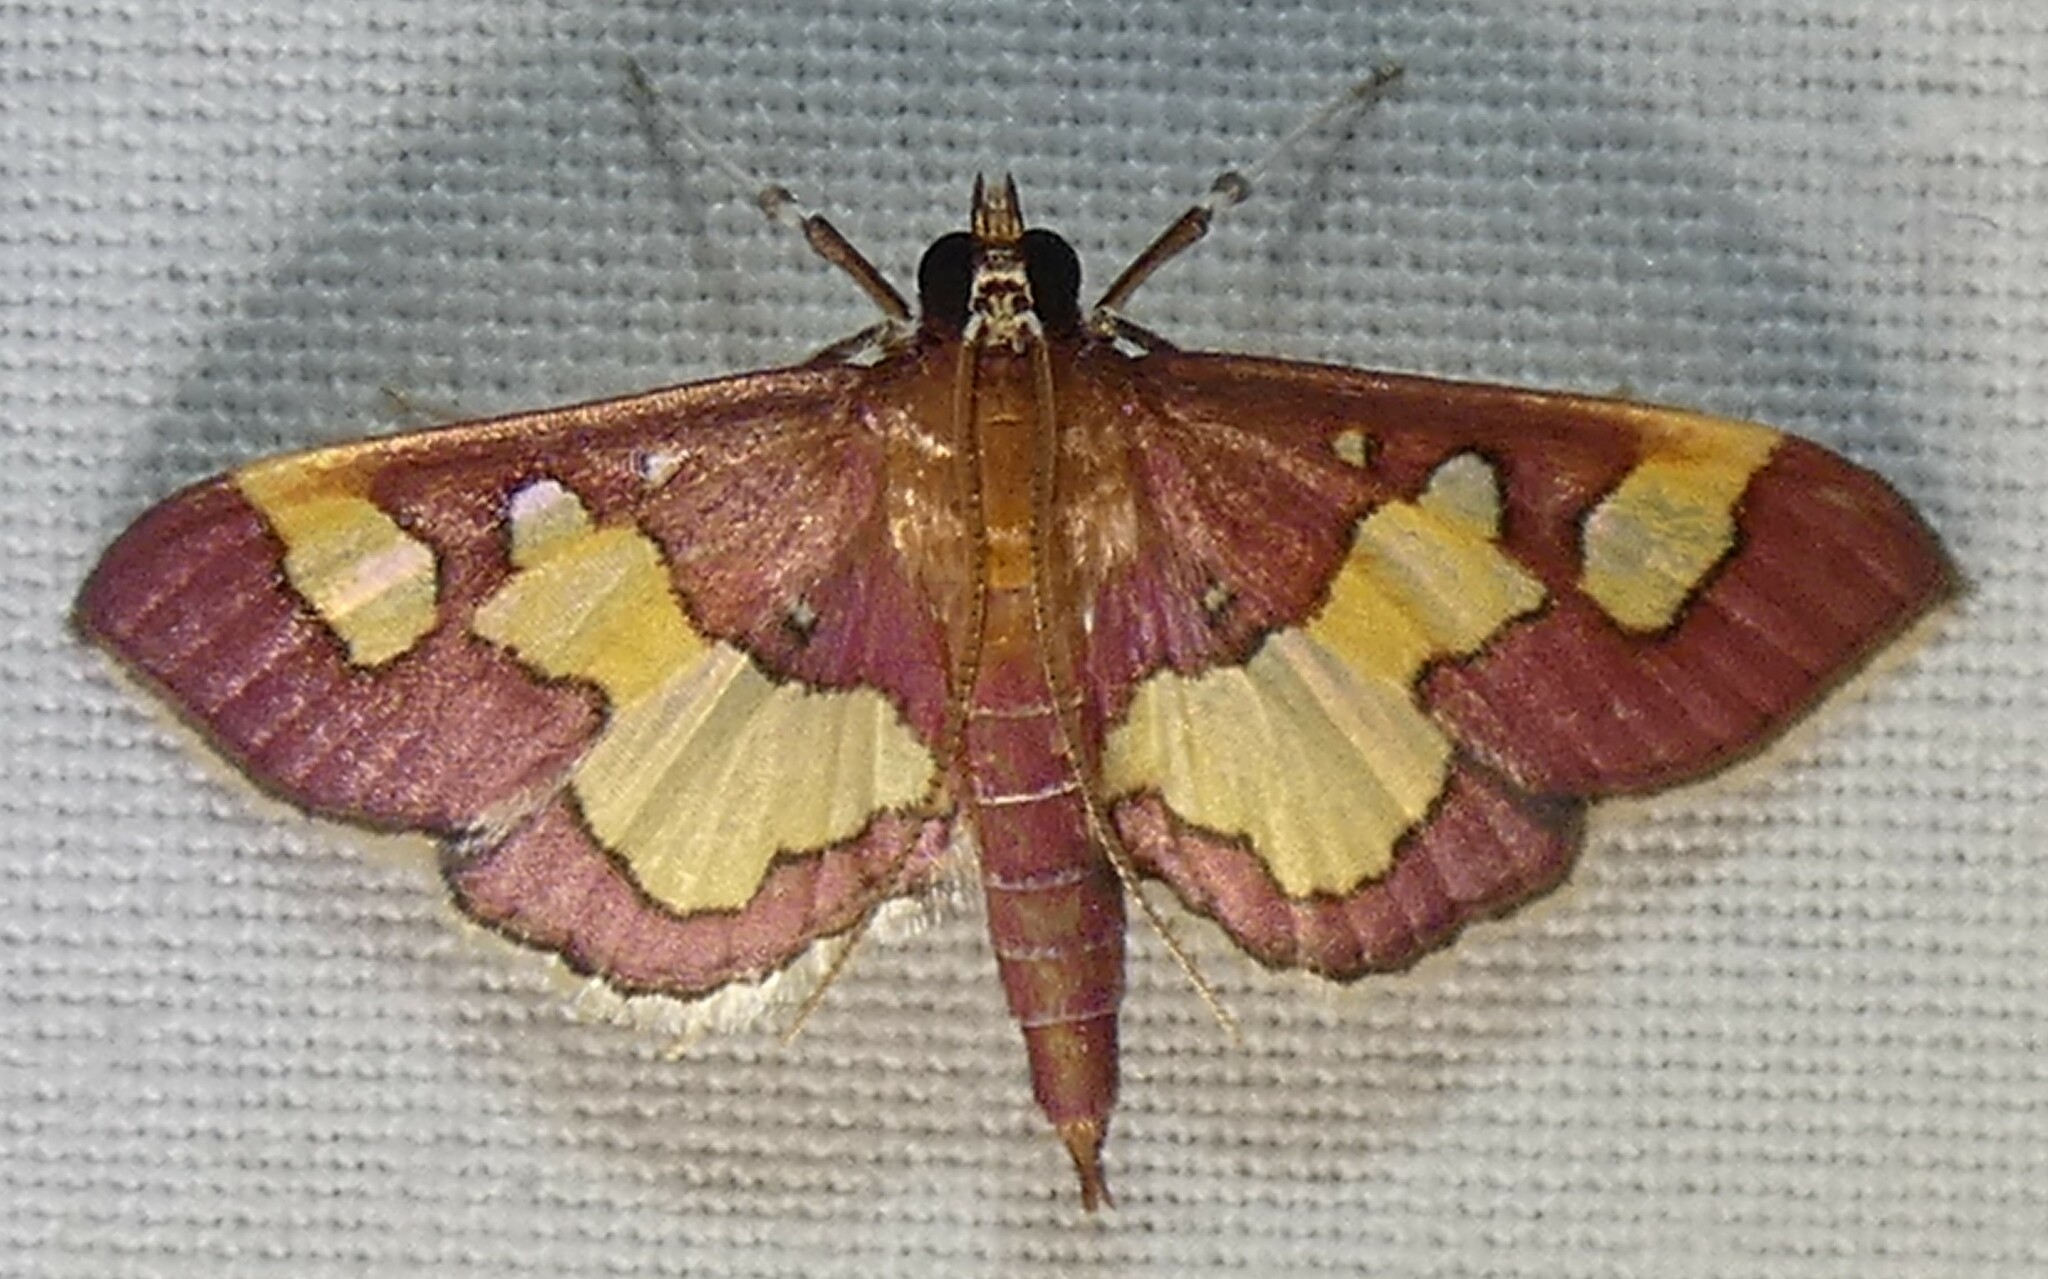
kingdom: Animalia
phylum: Arthropoda
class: Insecta
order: Lepidoptera
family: Crambidae
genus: Colomychus
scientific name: Colomychus talis
